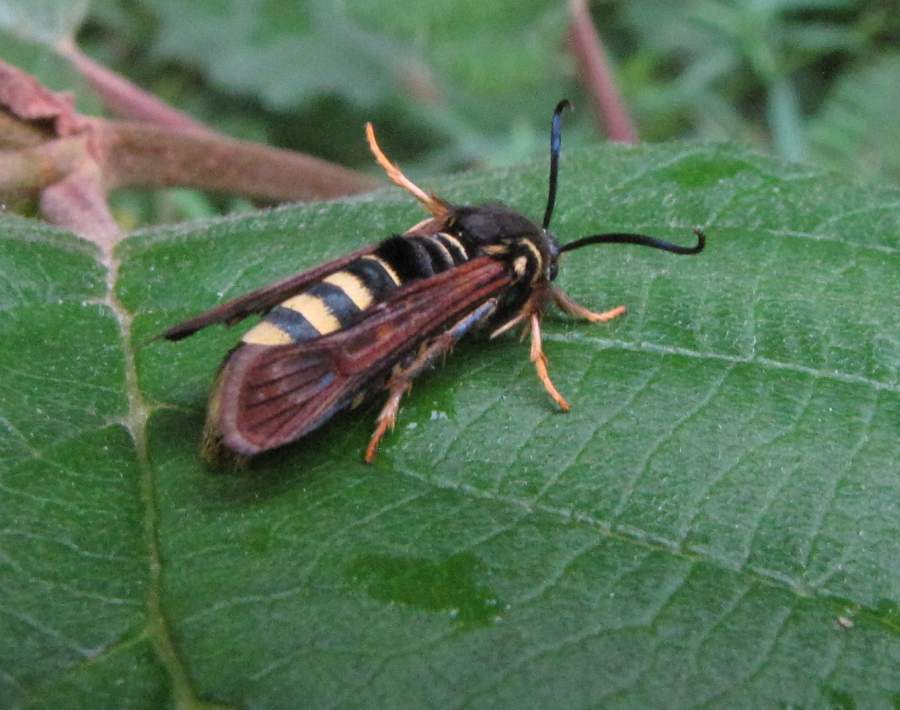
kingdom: Animalia
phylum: Arthropoda
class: Insecta
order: Lepidoptera
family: Sesiidae
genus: Pennisetia
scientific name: Pennisetia marginatum
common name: Raspberry crown borer
